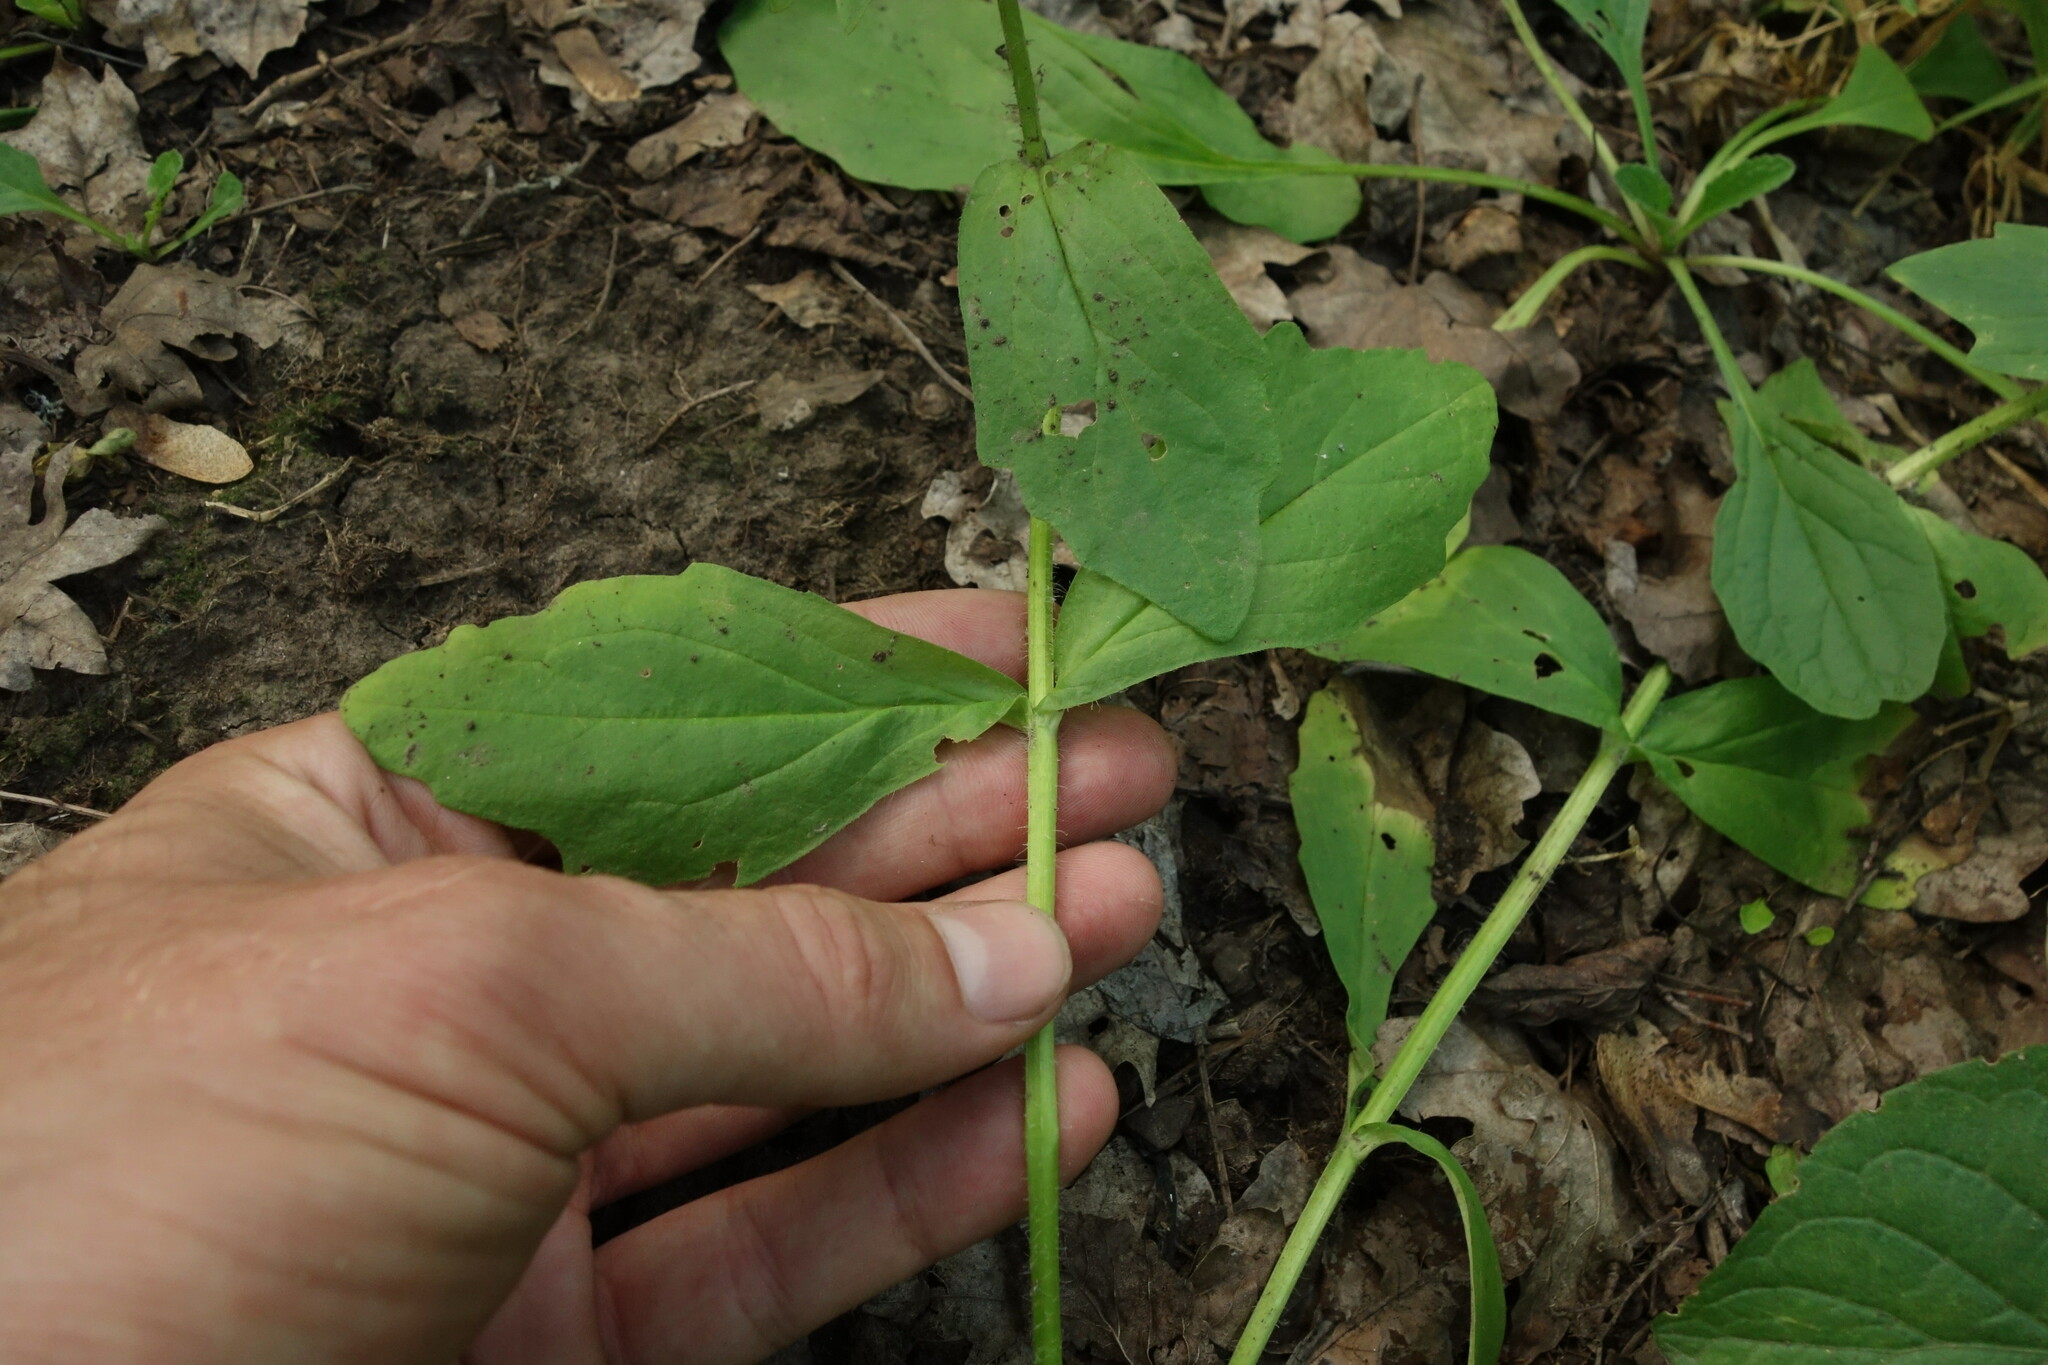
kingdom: Plantae
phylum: Tracheophyta
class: Magnoliopsida
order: Lamiales
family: Lamiaceae
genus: Ajuga
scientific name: Ajuga genevensis
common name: Blue bugle
